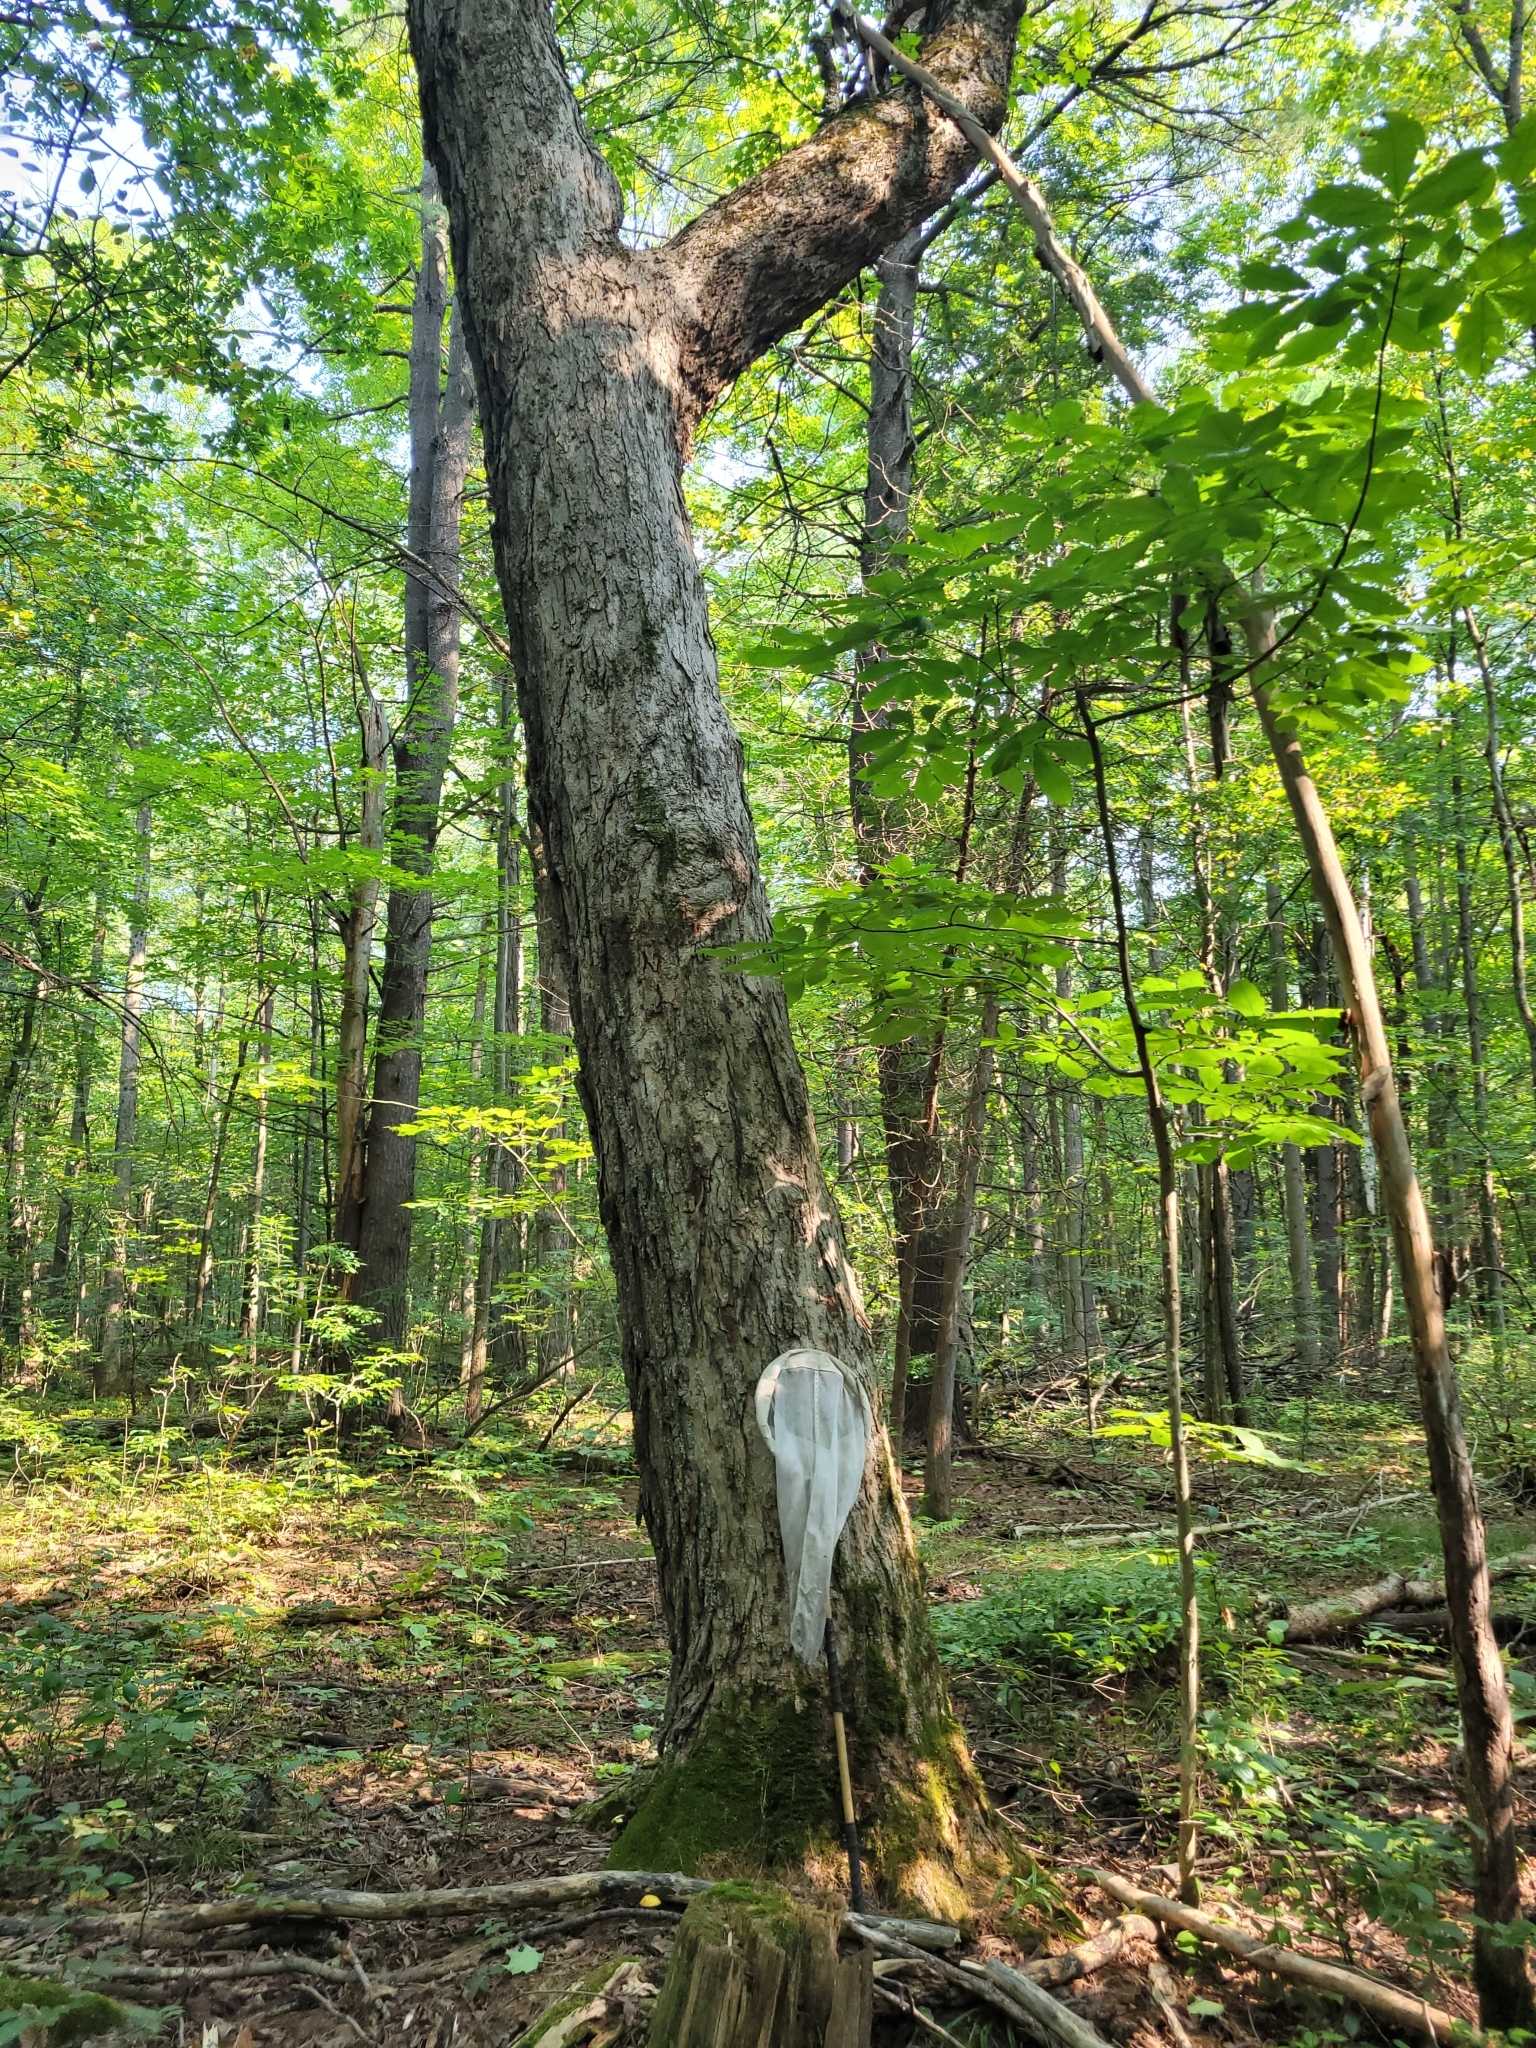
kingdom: Plantae
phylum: Tracheophyta
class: Magnoliopsida
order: Sapindales
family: Sapindaceae
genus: Acer
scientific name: Acer saccharum
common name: Sugar maple
